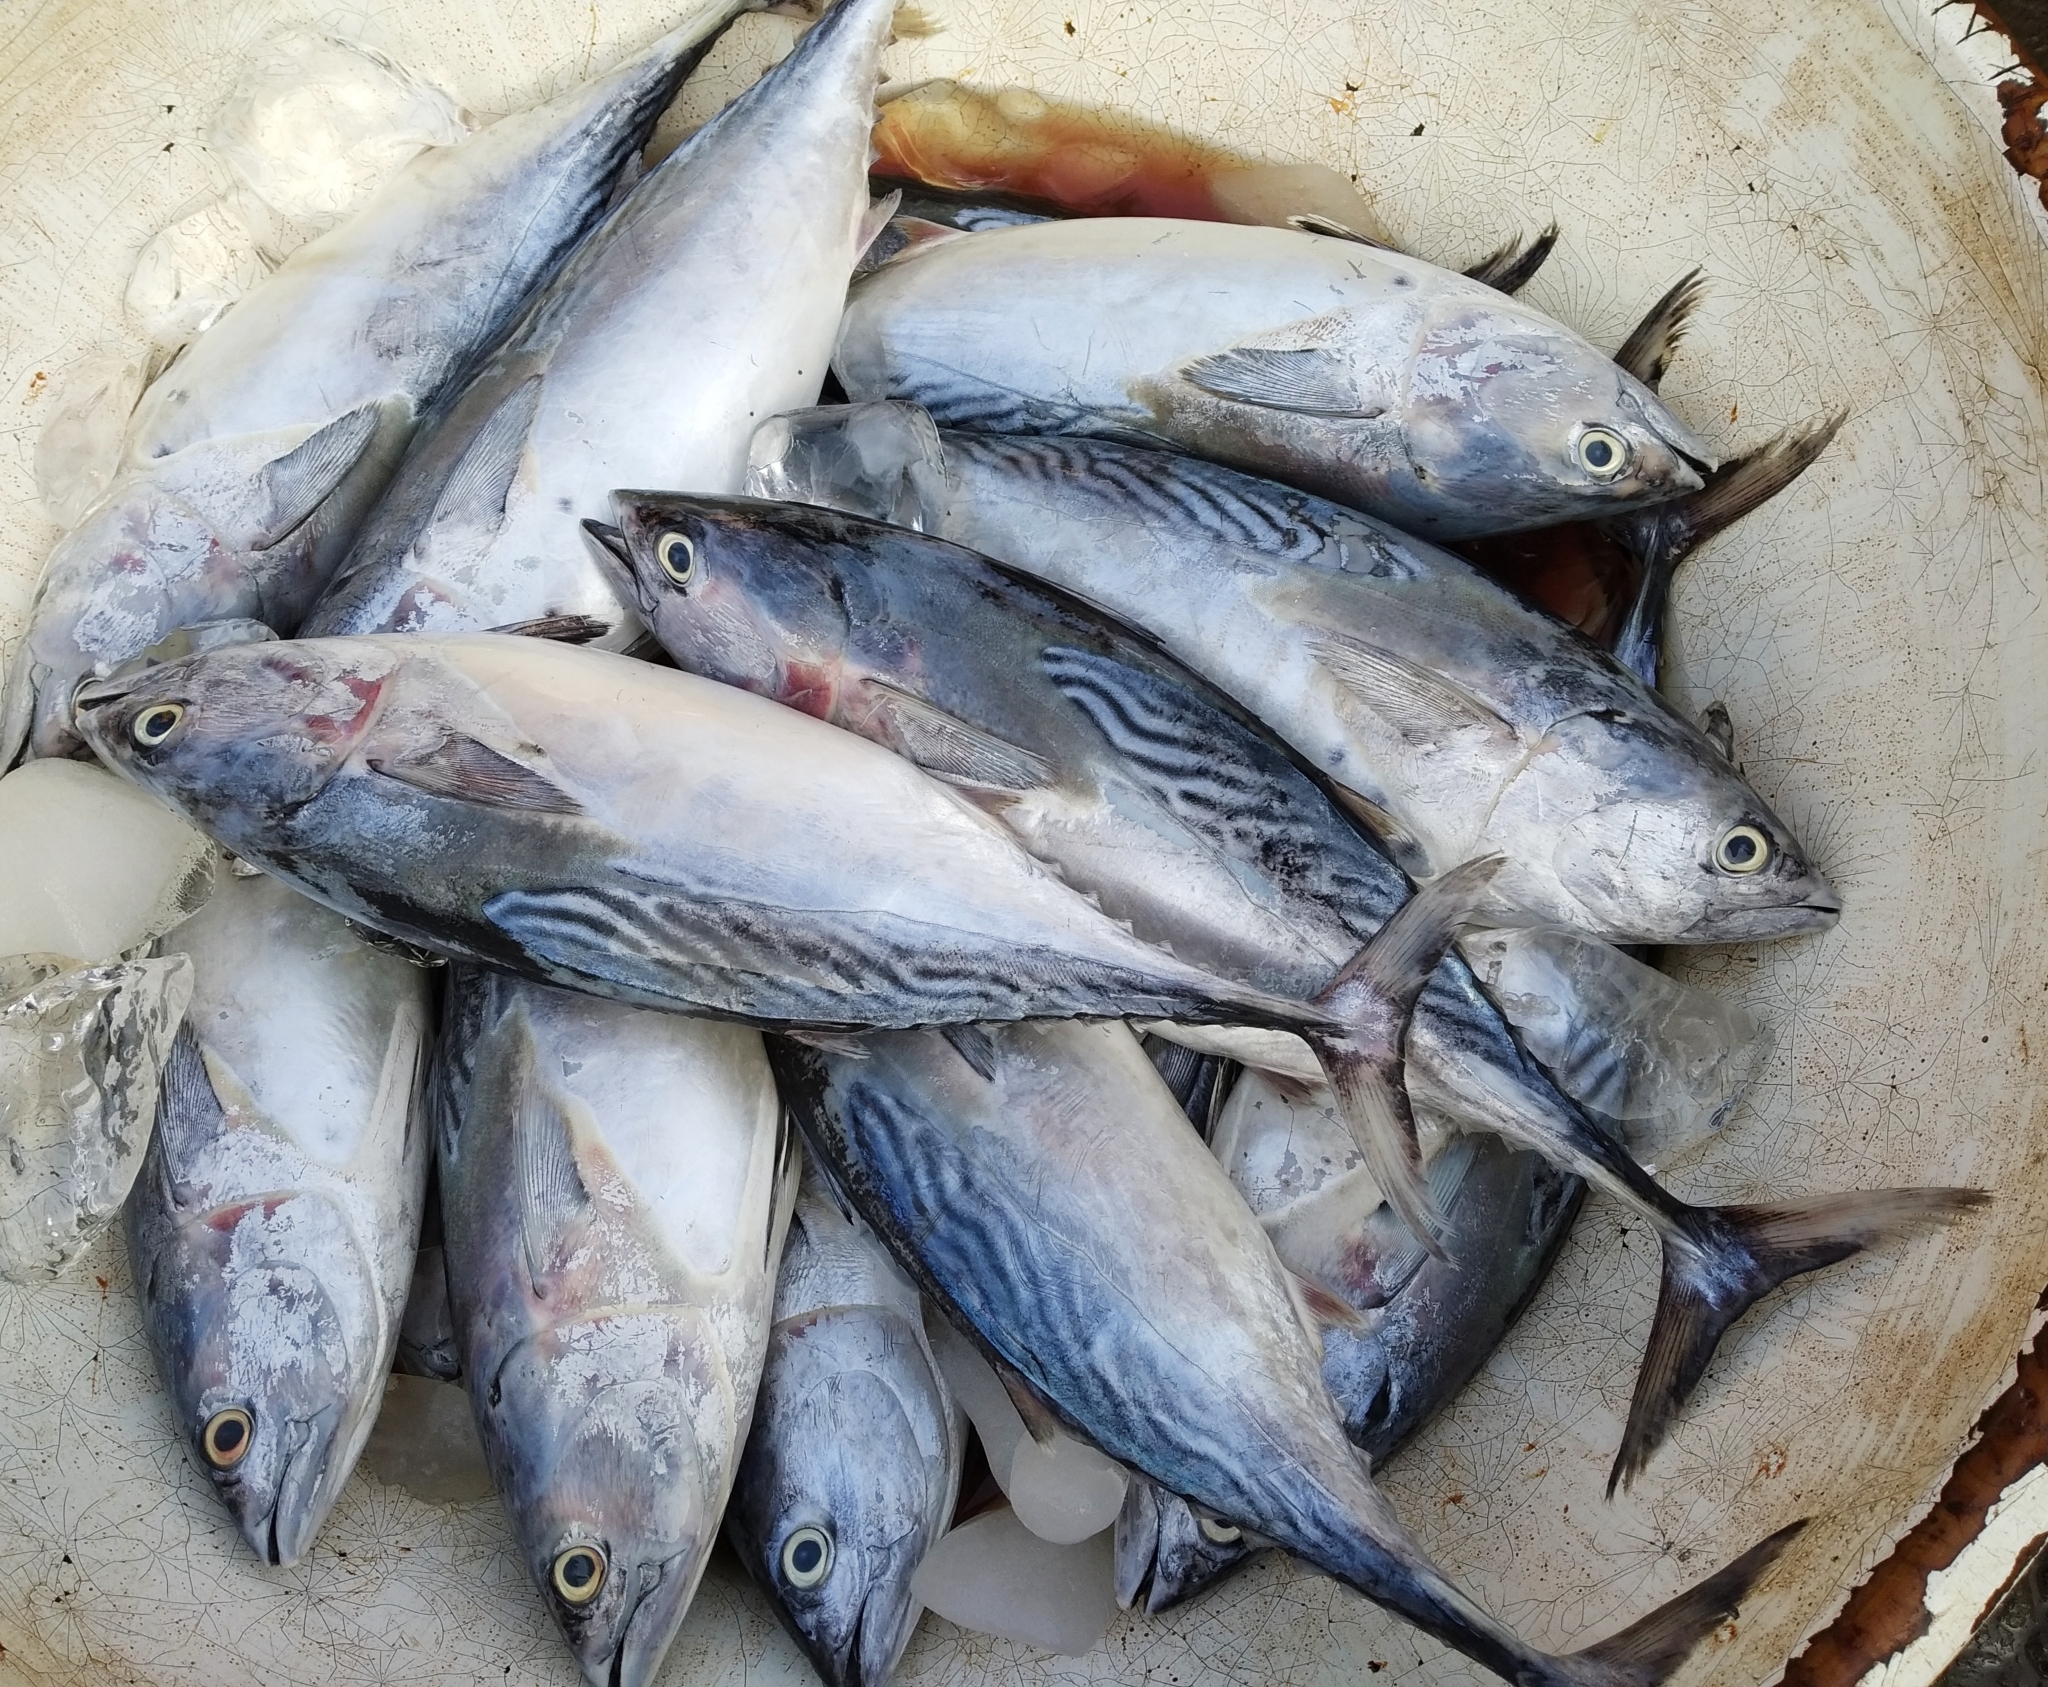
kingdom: Animalia
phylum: Chordata
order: Perciformes
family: Scombridae
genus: Euthynnus
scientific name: Euthynnus affinis
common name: Mackerel tuna
